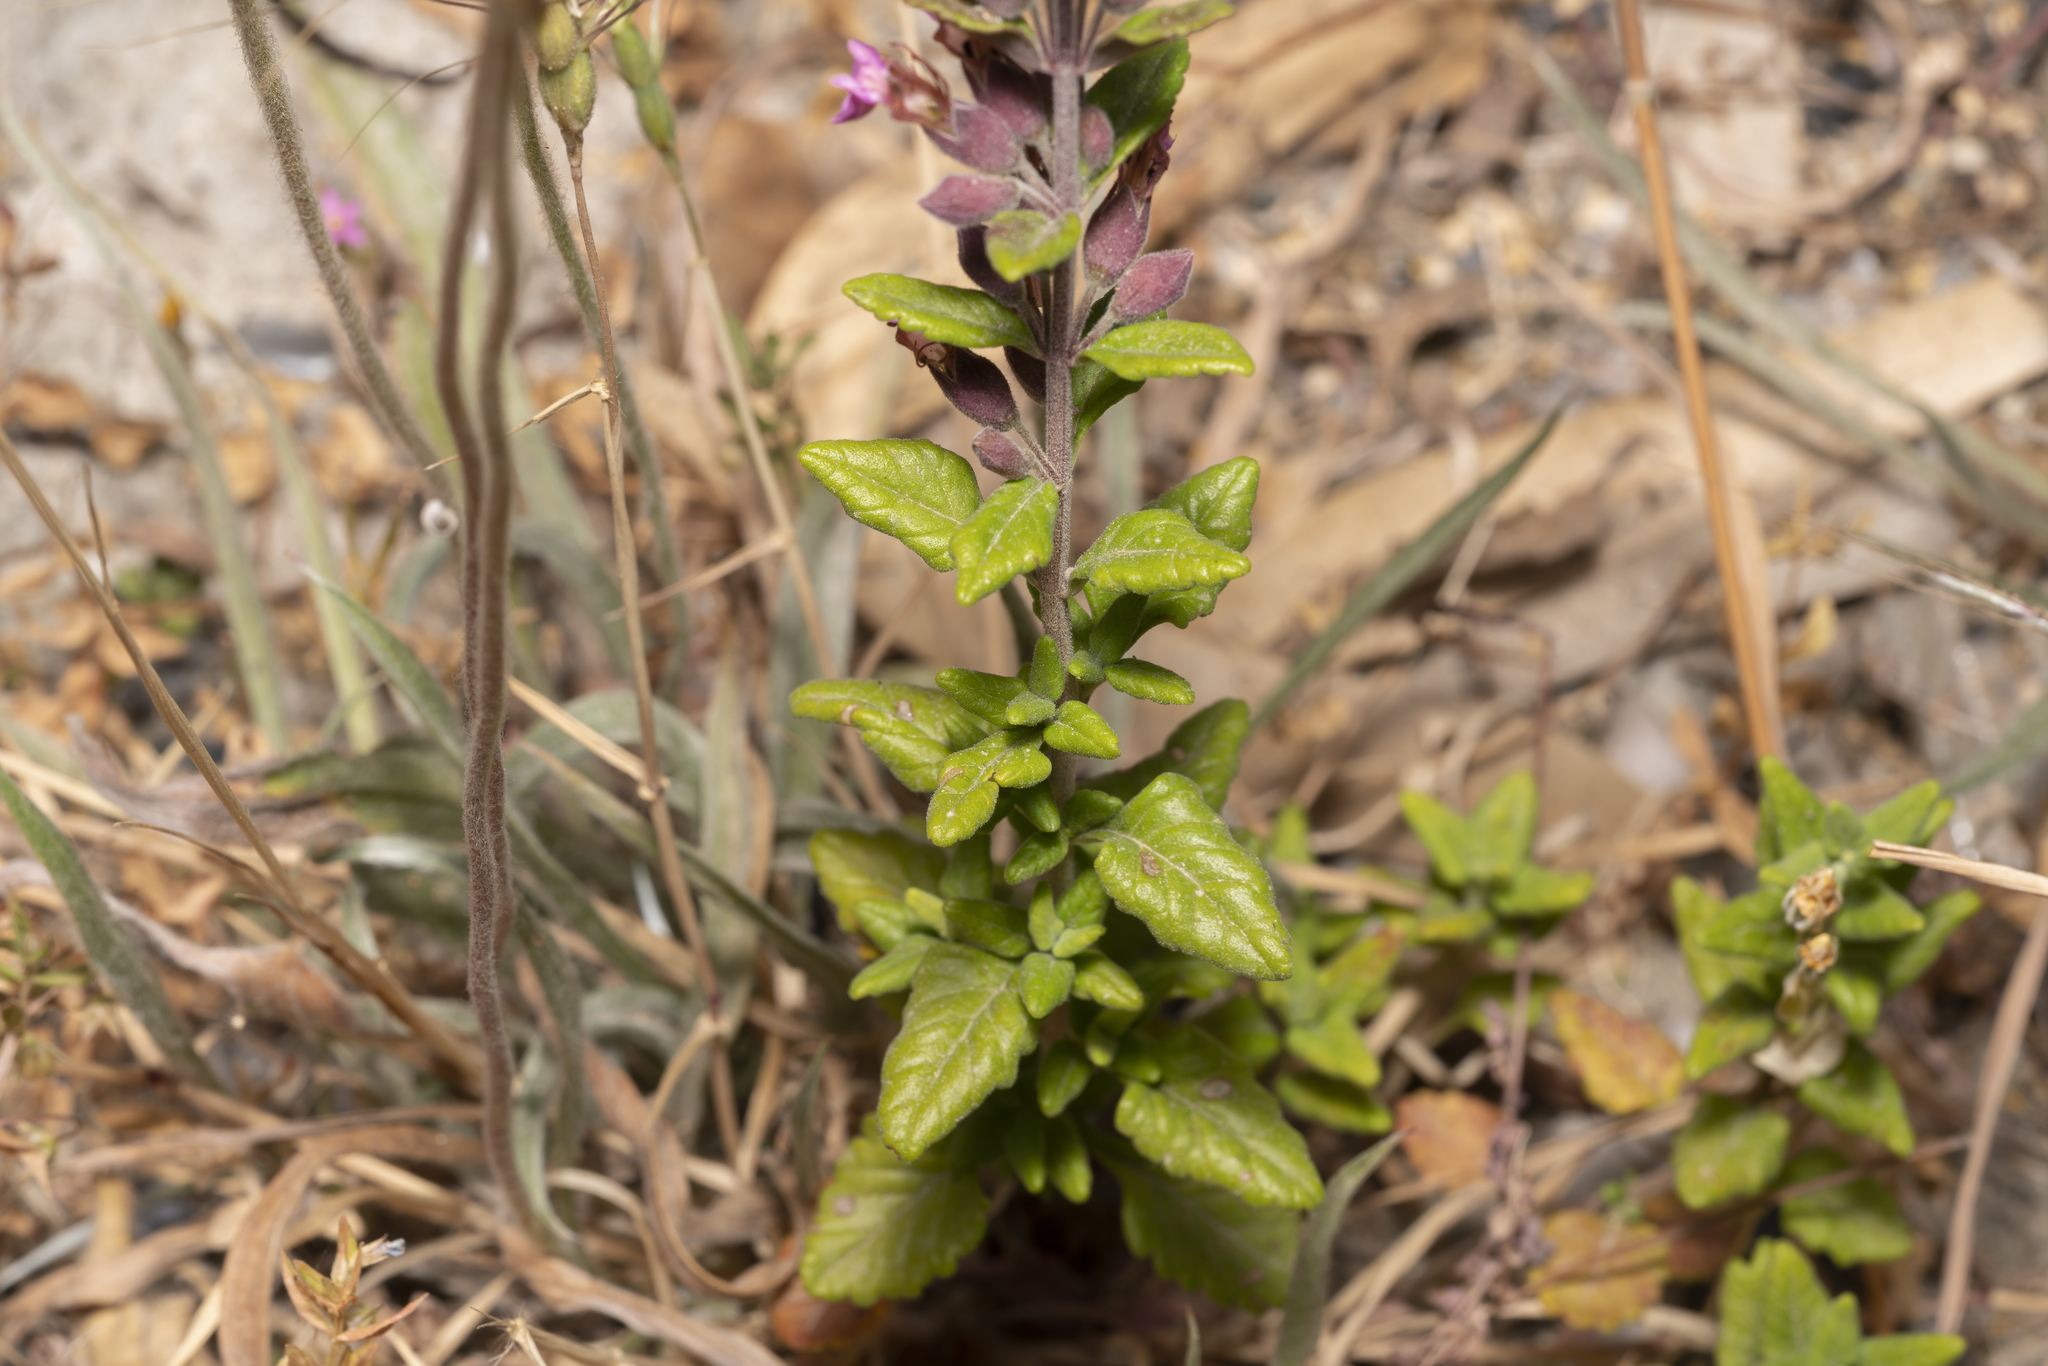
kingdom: Plantae
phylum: Tracheophyta
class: Magnoliopsida
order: Lamiales
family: Lamiaceae
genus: Teucrium
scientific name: Teucrium divaricatum
